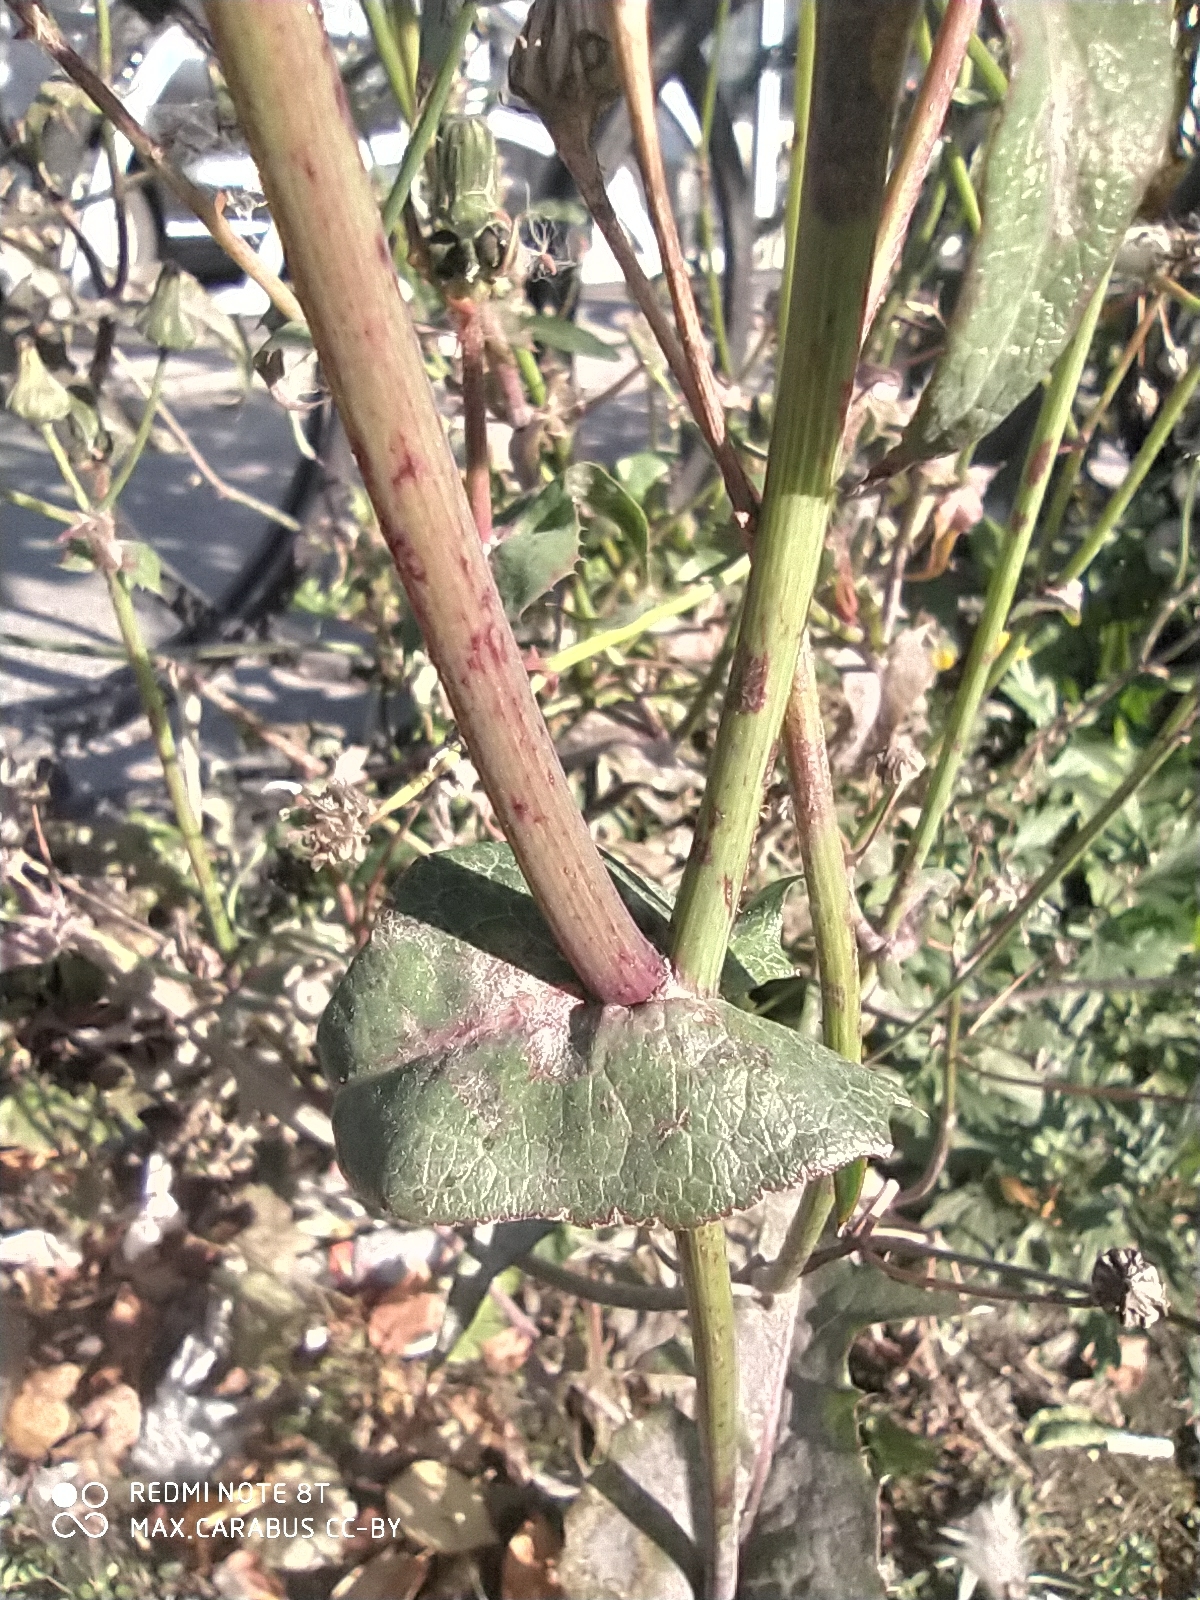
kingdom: Plantae
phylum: Tracheophyta
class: Magnoliopsida
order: Asterales
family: Asteraceae
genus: Sonchus
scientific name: Sonchus oleraceus
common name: Common sowthistle
